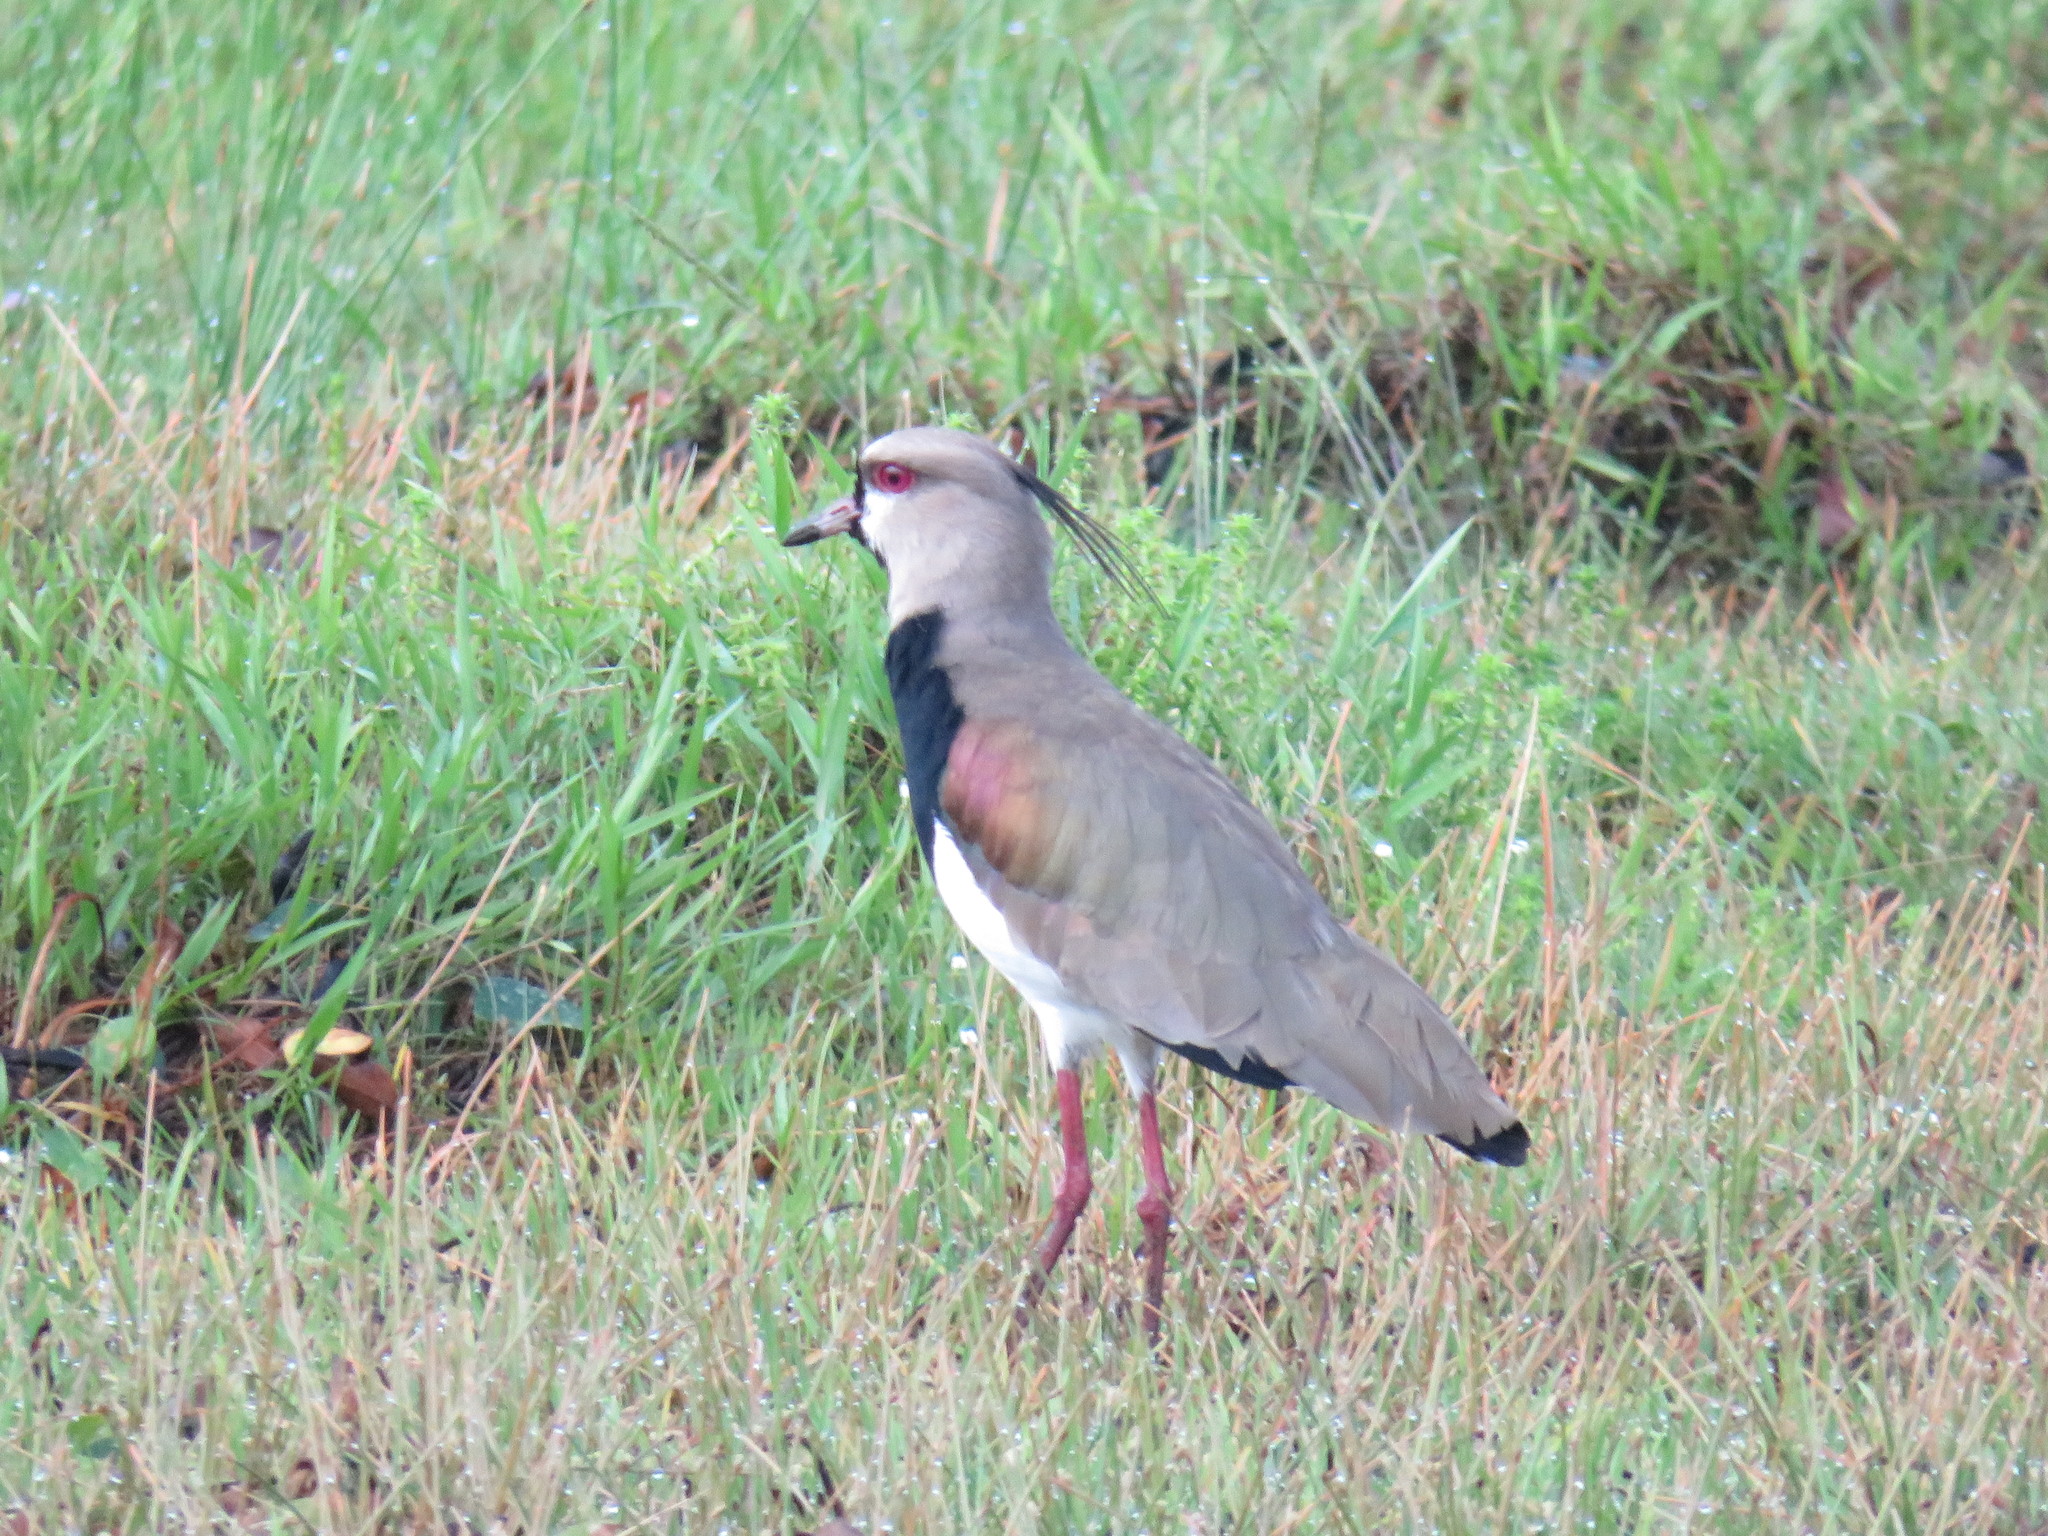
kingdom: Animalia
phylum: Chordata
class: Aves
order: Charadriiformes
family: Charadriidae
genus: Vanellus
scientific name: Vanellus chilensis
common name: Southern lapwing
